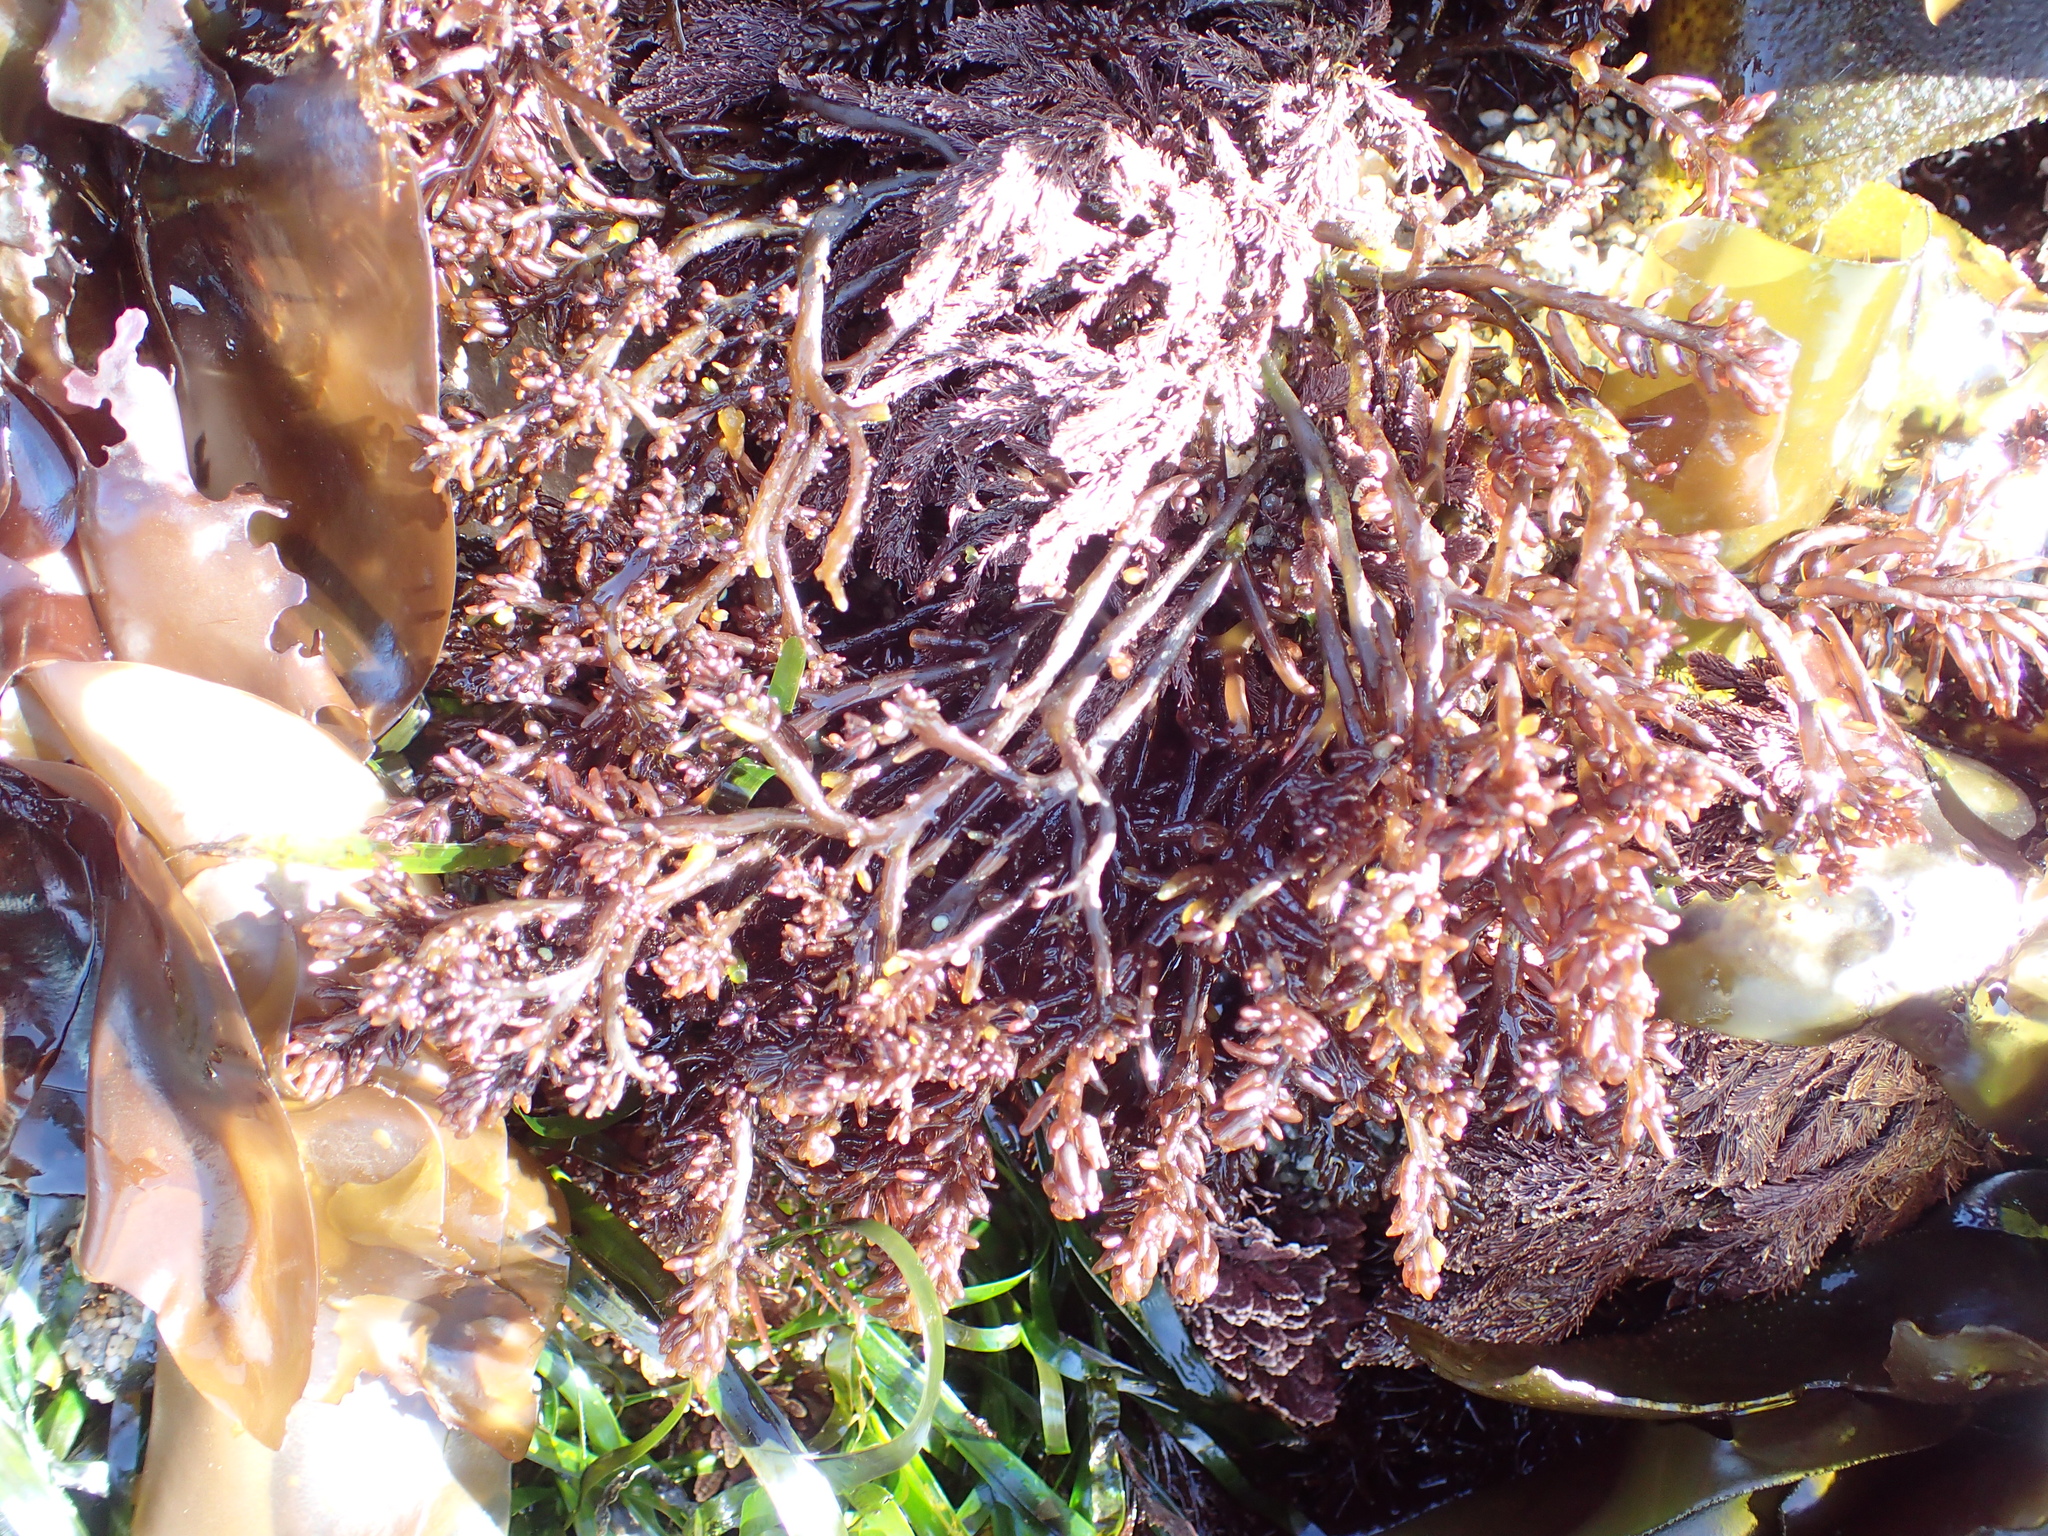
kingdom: Plantae
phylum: Rhodophyta
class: Florideophyceae
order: Rhodymeniales
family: Champiaceae
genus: Neogastroclonium
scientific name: Neogastroclonium subarticulatum
